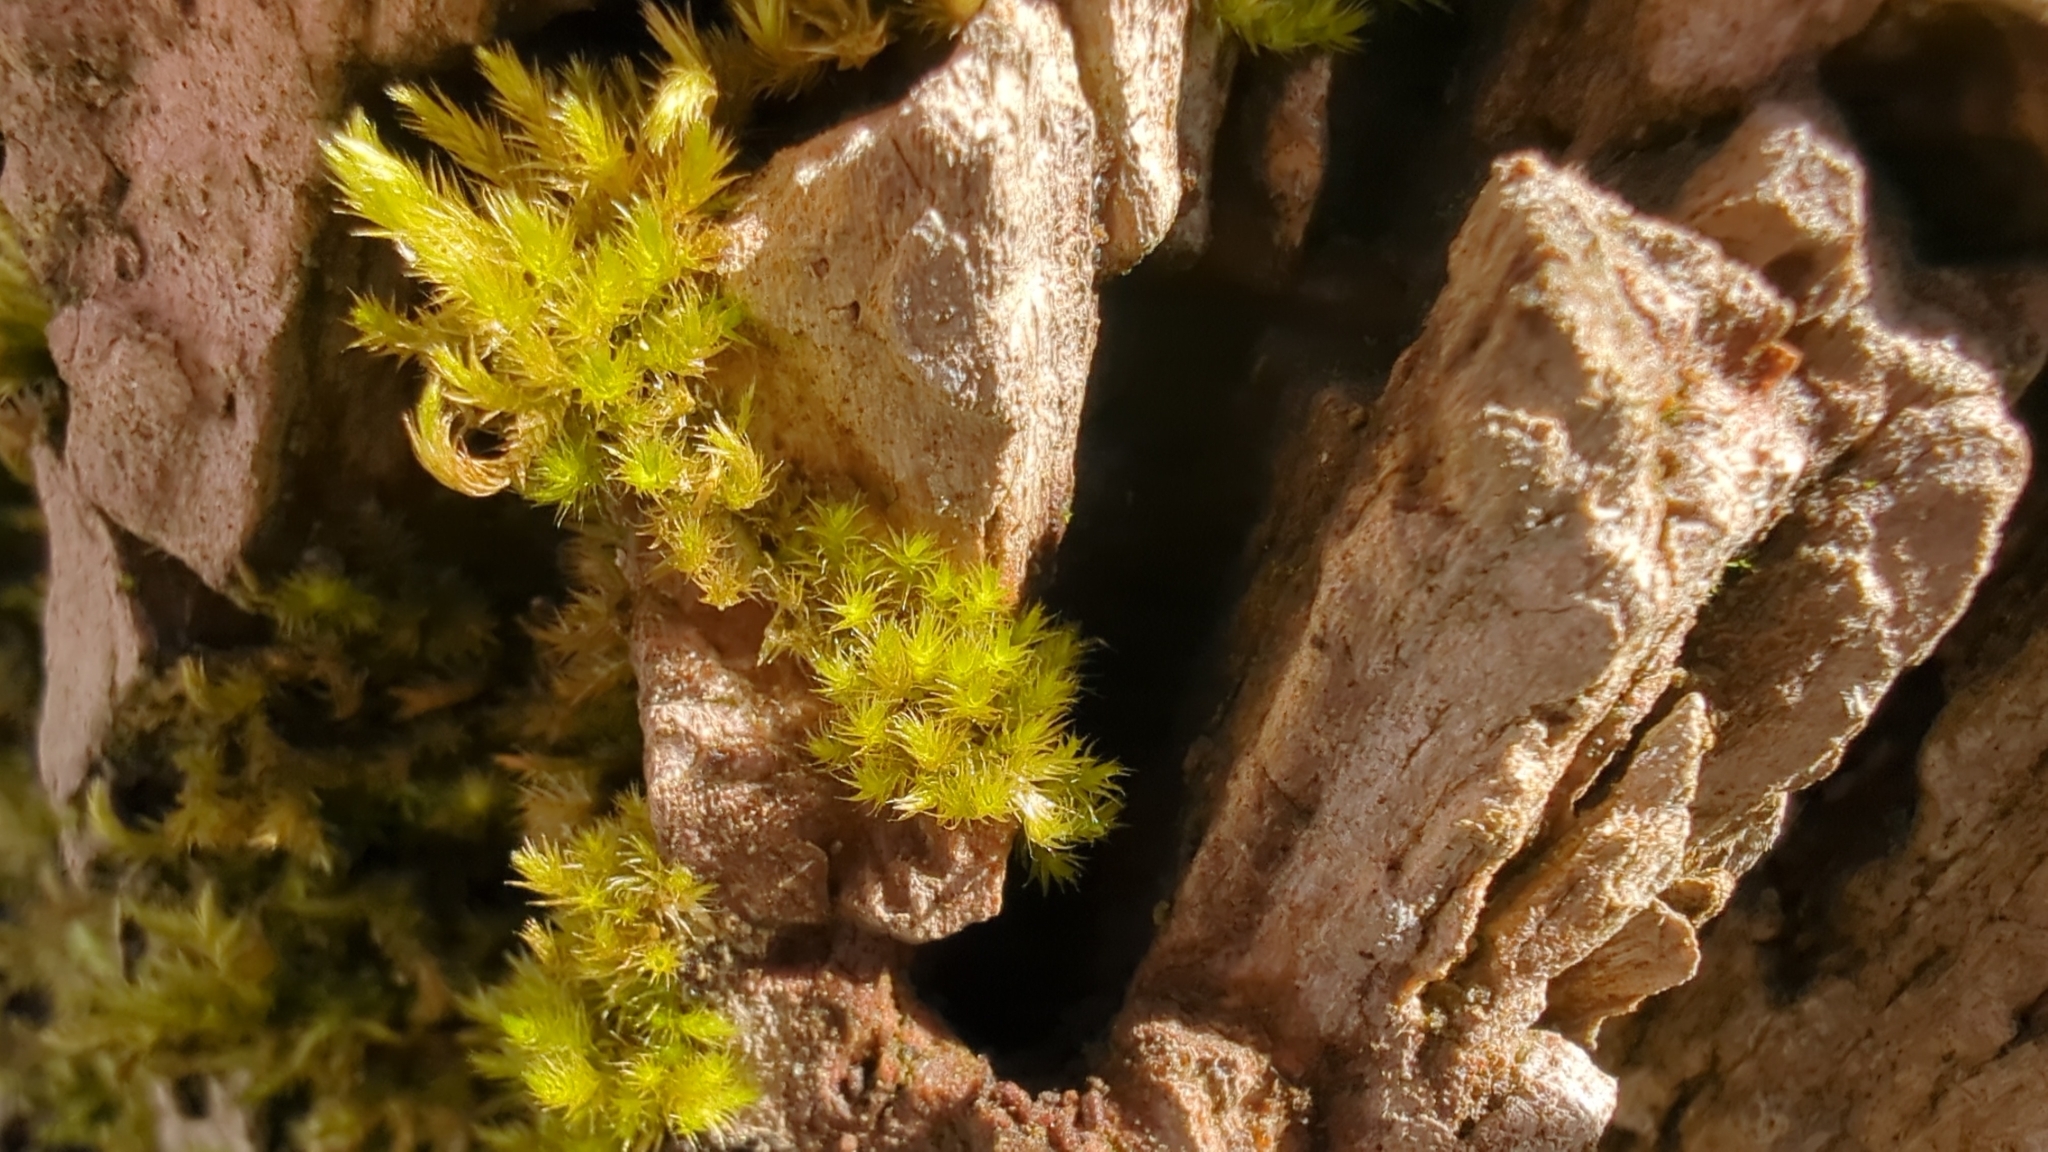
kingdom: Plantae
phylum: Bryophyta
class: Bryopsida
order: Hypnales
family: Brachytheciaceae
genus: Homalothecium
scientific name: Homalothecium nuttallii
